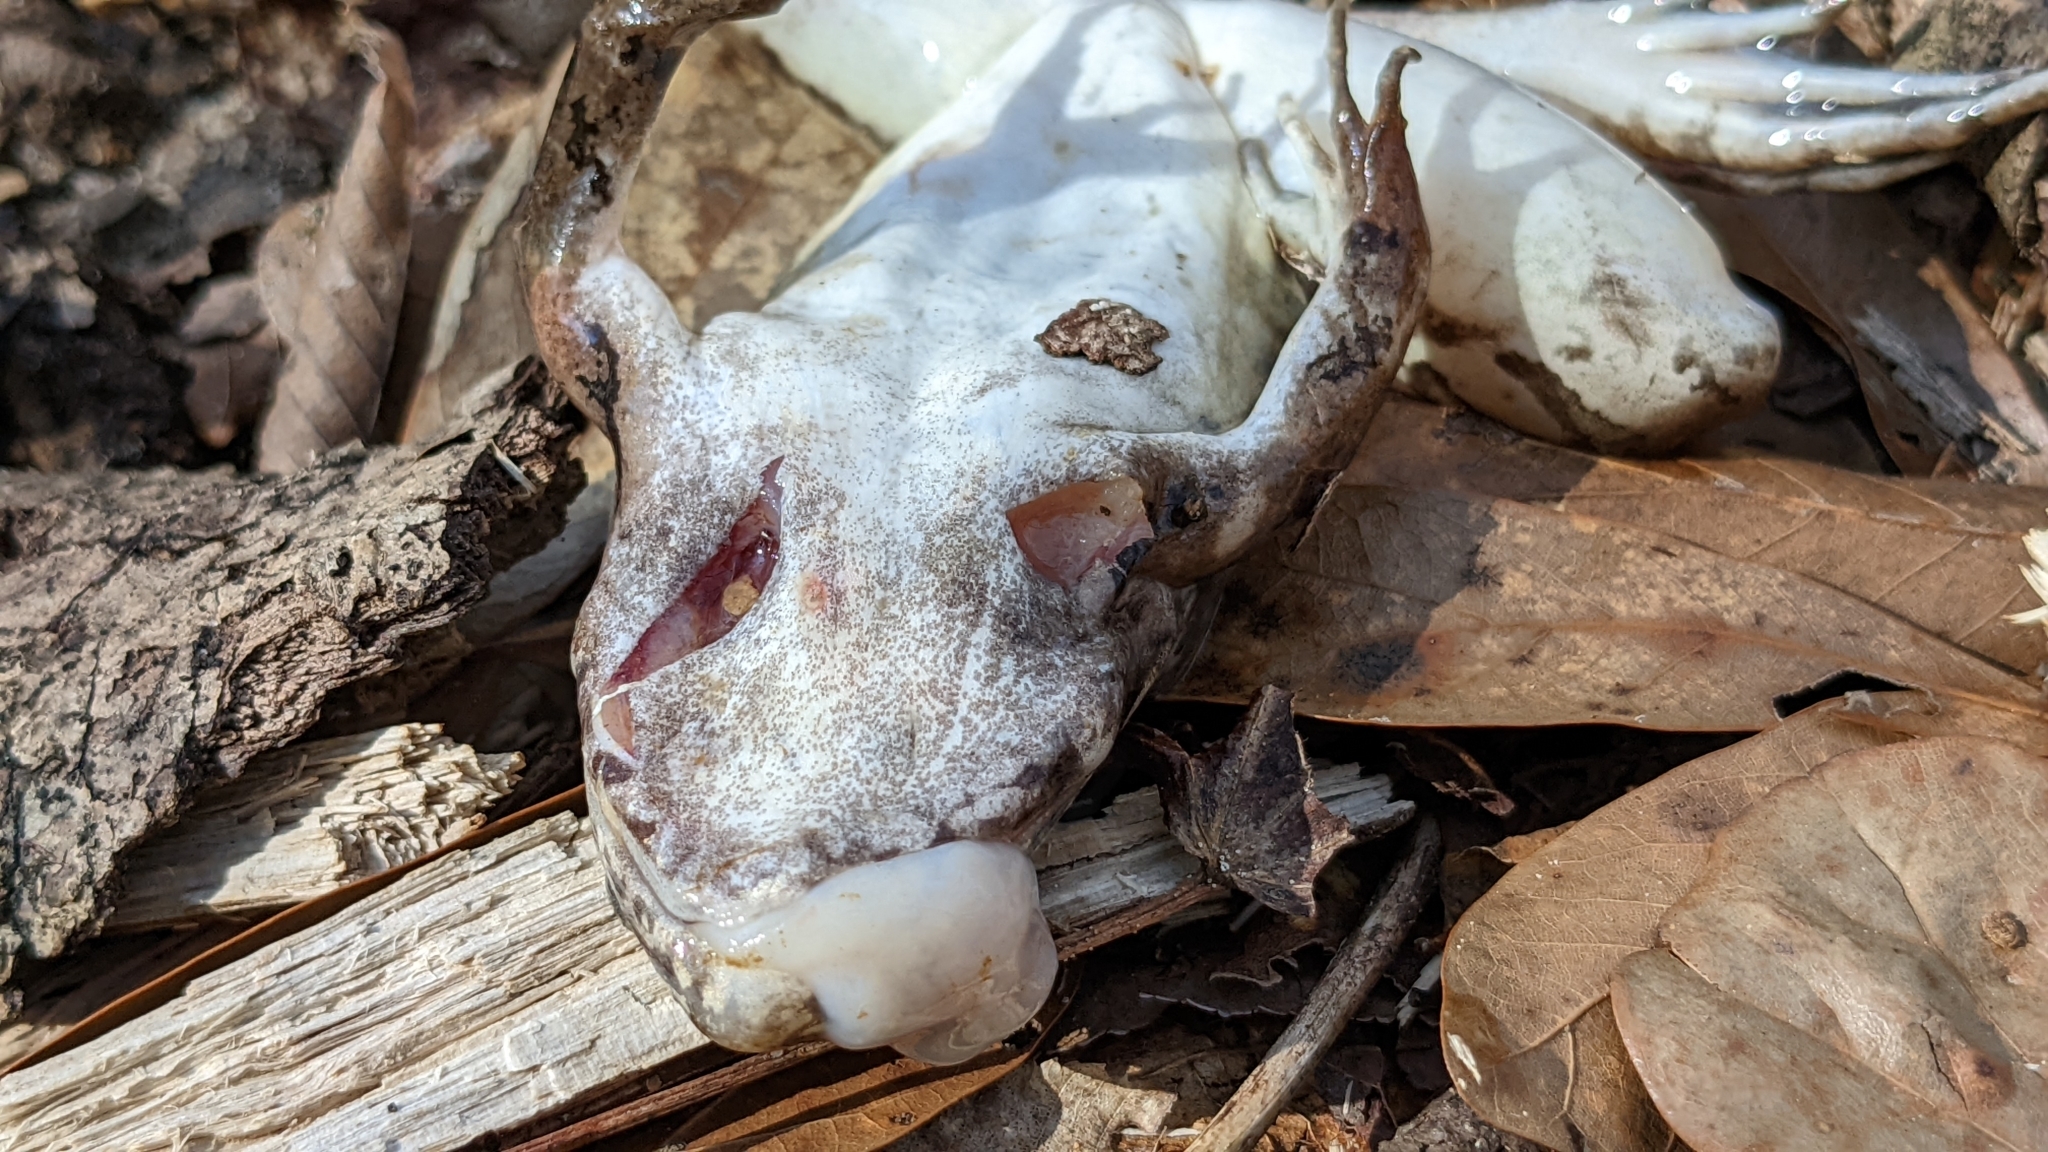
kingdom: Animalia
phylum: Chordata
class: Amphibia
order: Anura
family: Ranidae
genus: Lithobates
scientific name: Lithobates sphenocephalus
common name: Southern leopard frog
